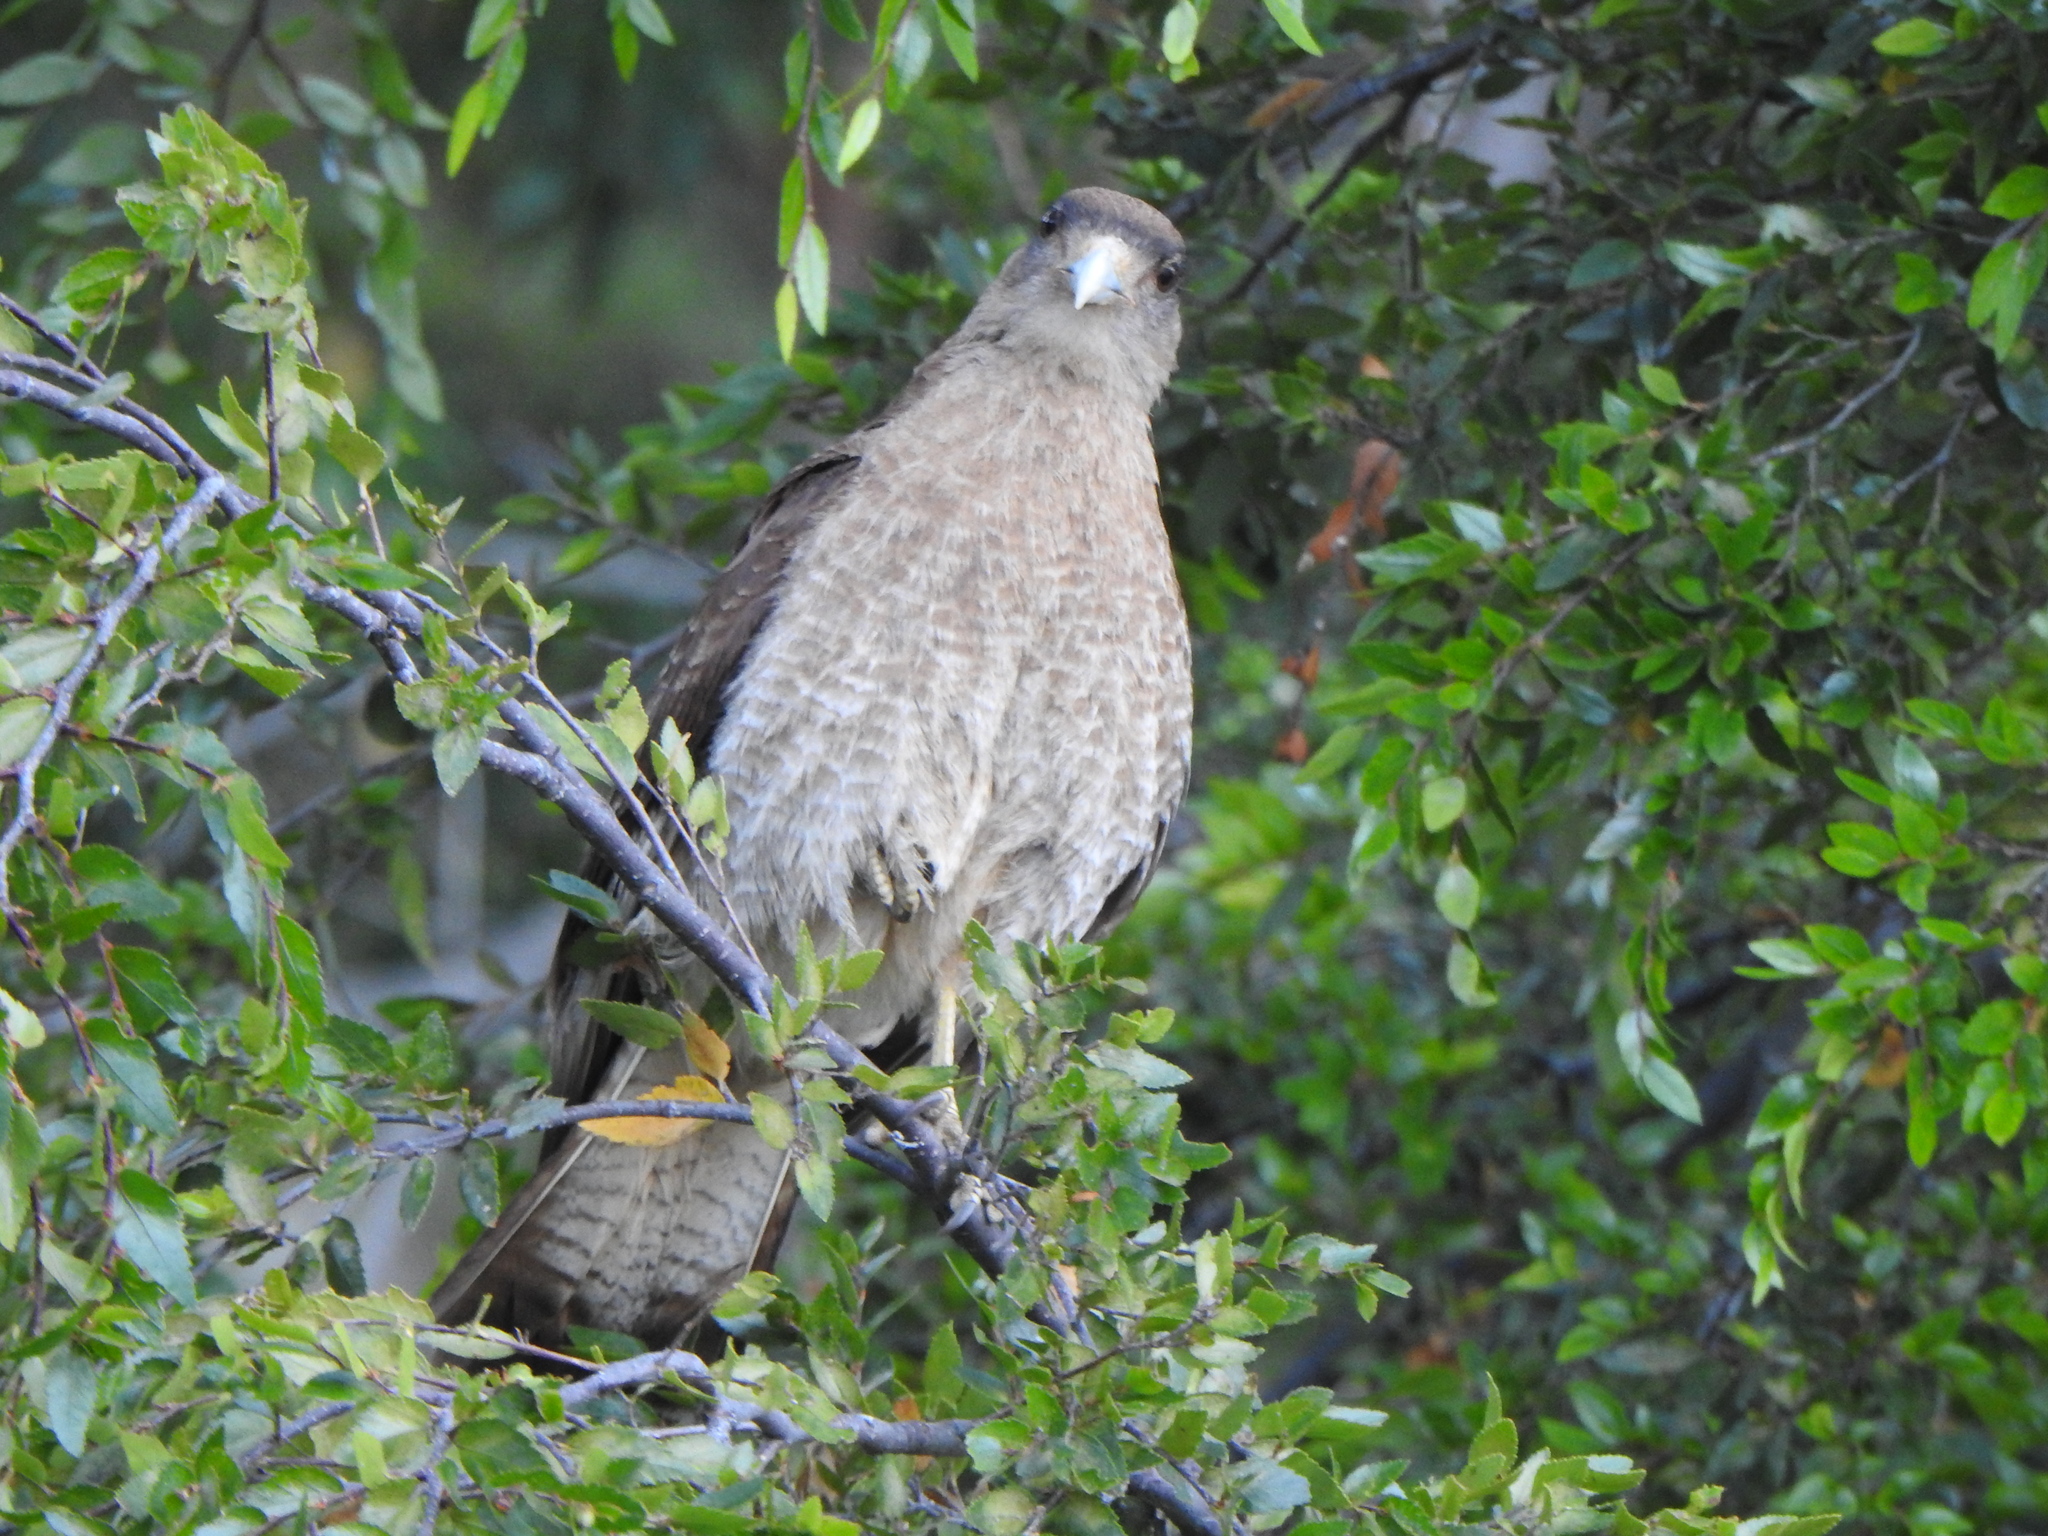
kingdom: Animalia
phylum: Chordata
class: Aves
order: Falconiformes
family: Falconidae
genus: Daptrius
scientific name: Daptrius
